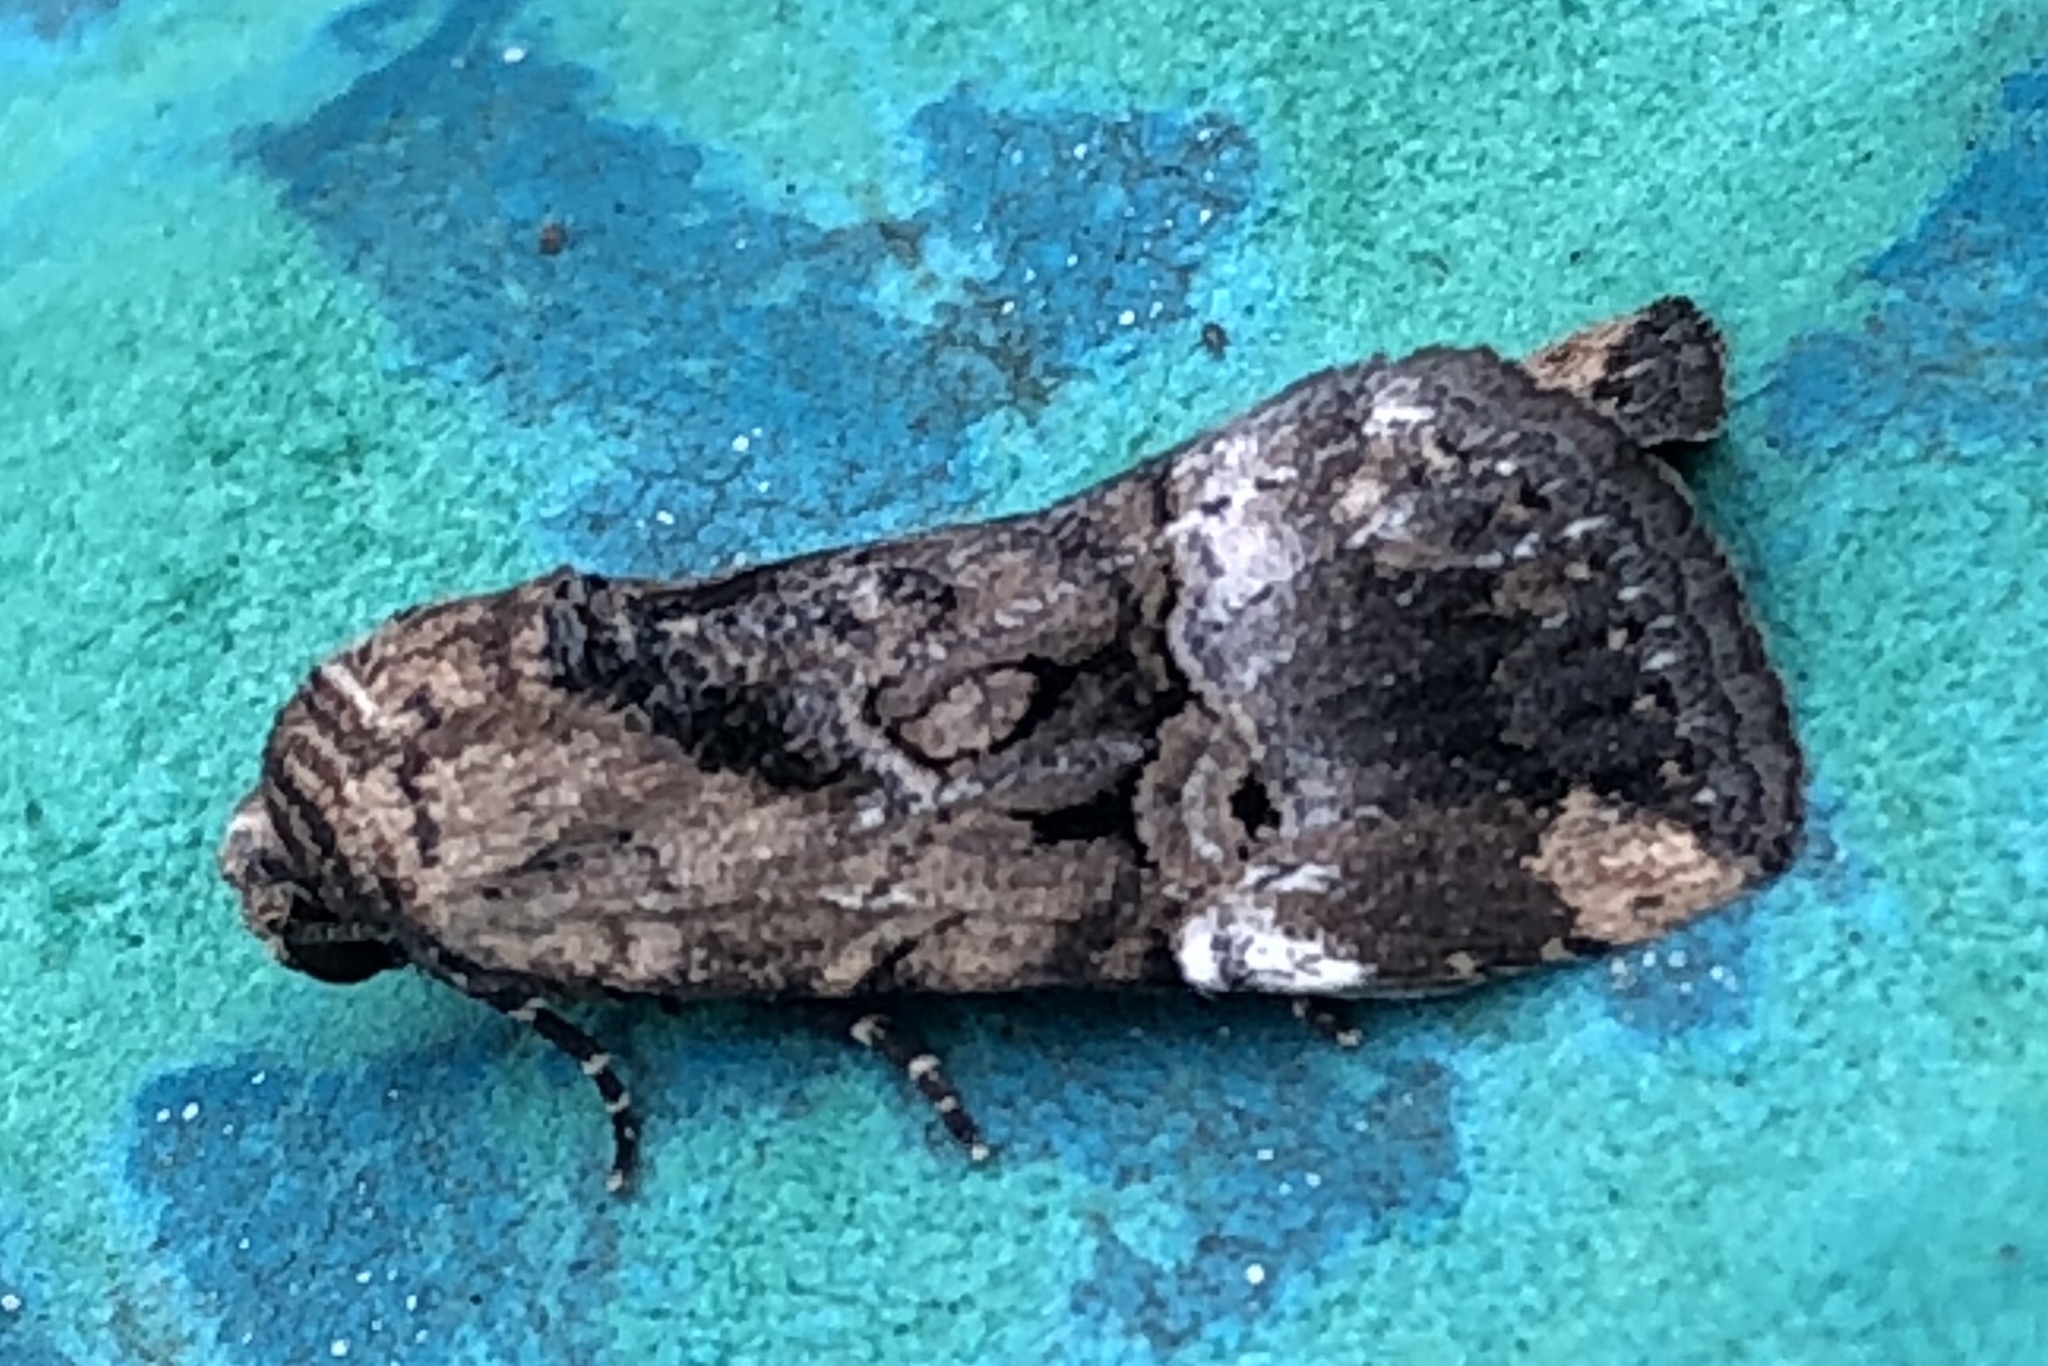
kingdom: Animalia
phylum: Arthropoda
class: Insecta
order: Lepidoptera
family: Noctuidae
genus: Elaphria
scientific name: Elaphria chalcedonia
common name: Chalcedony midget
